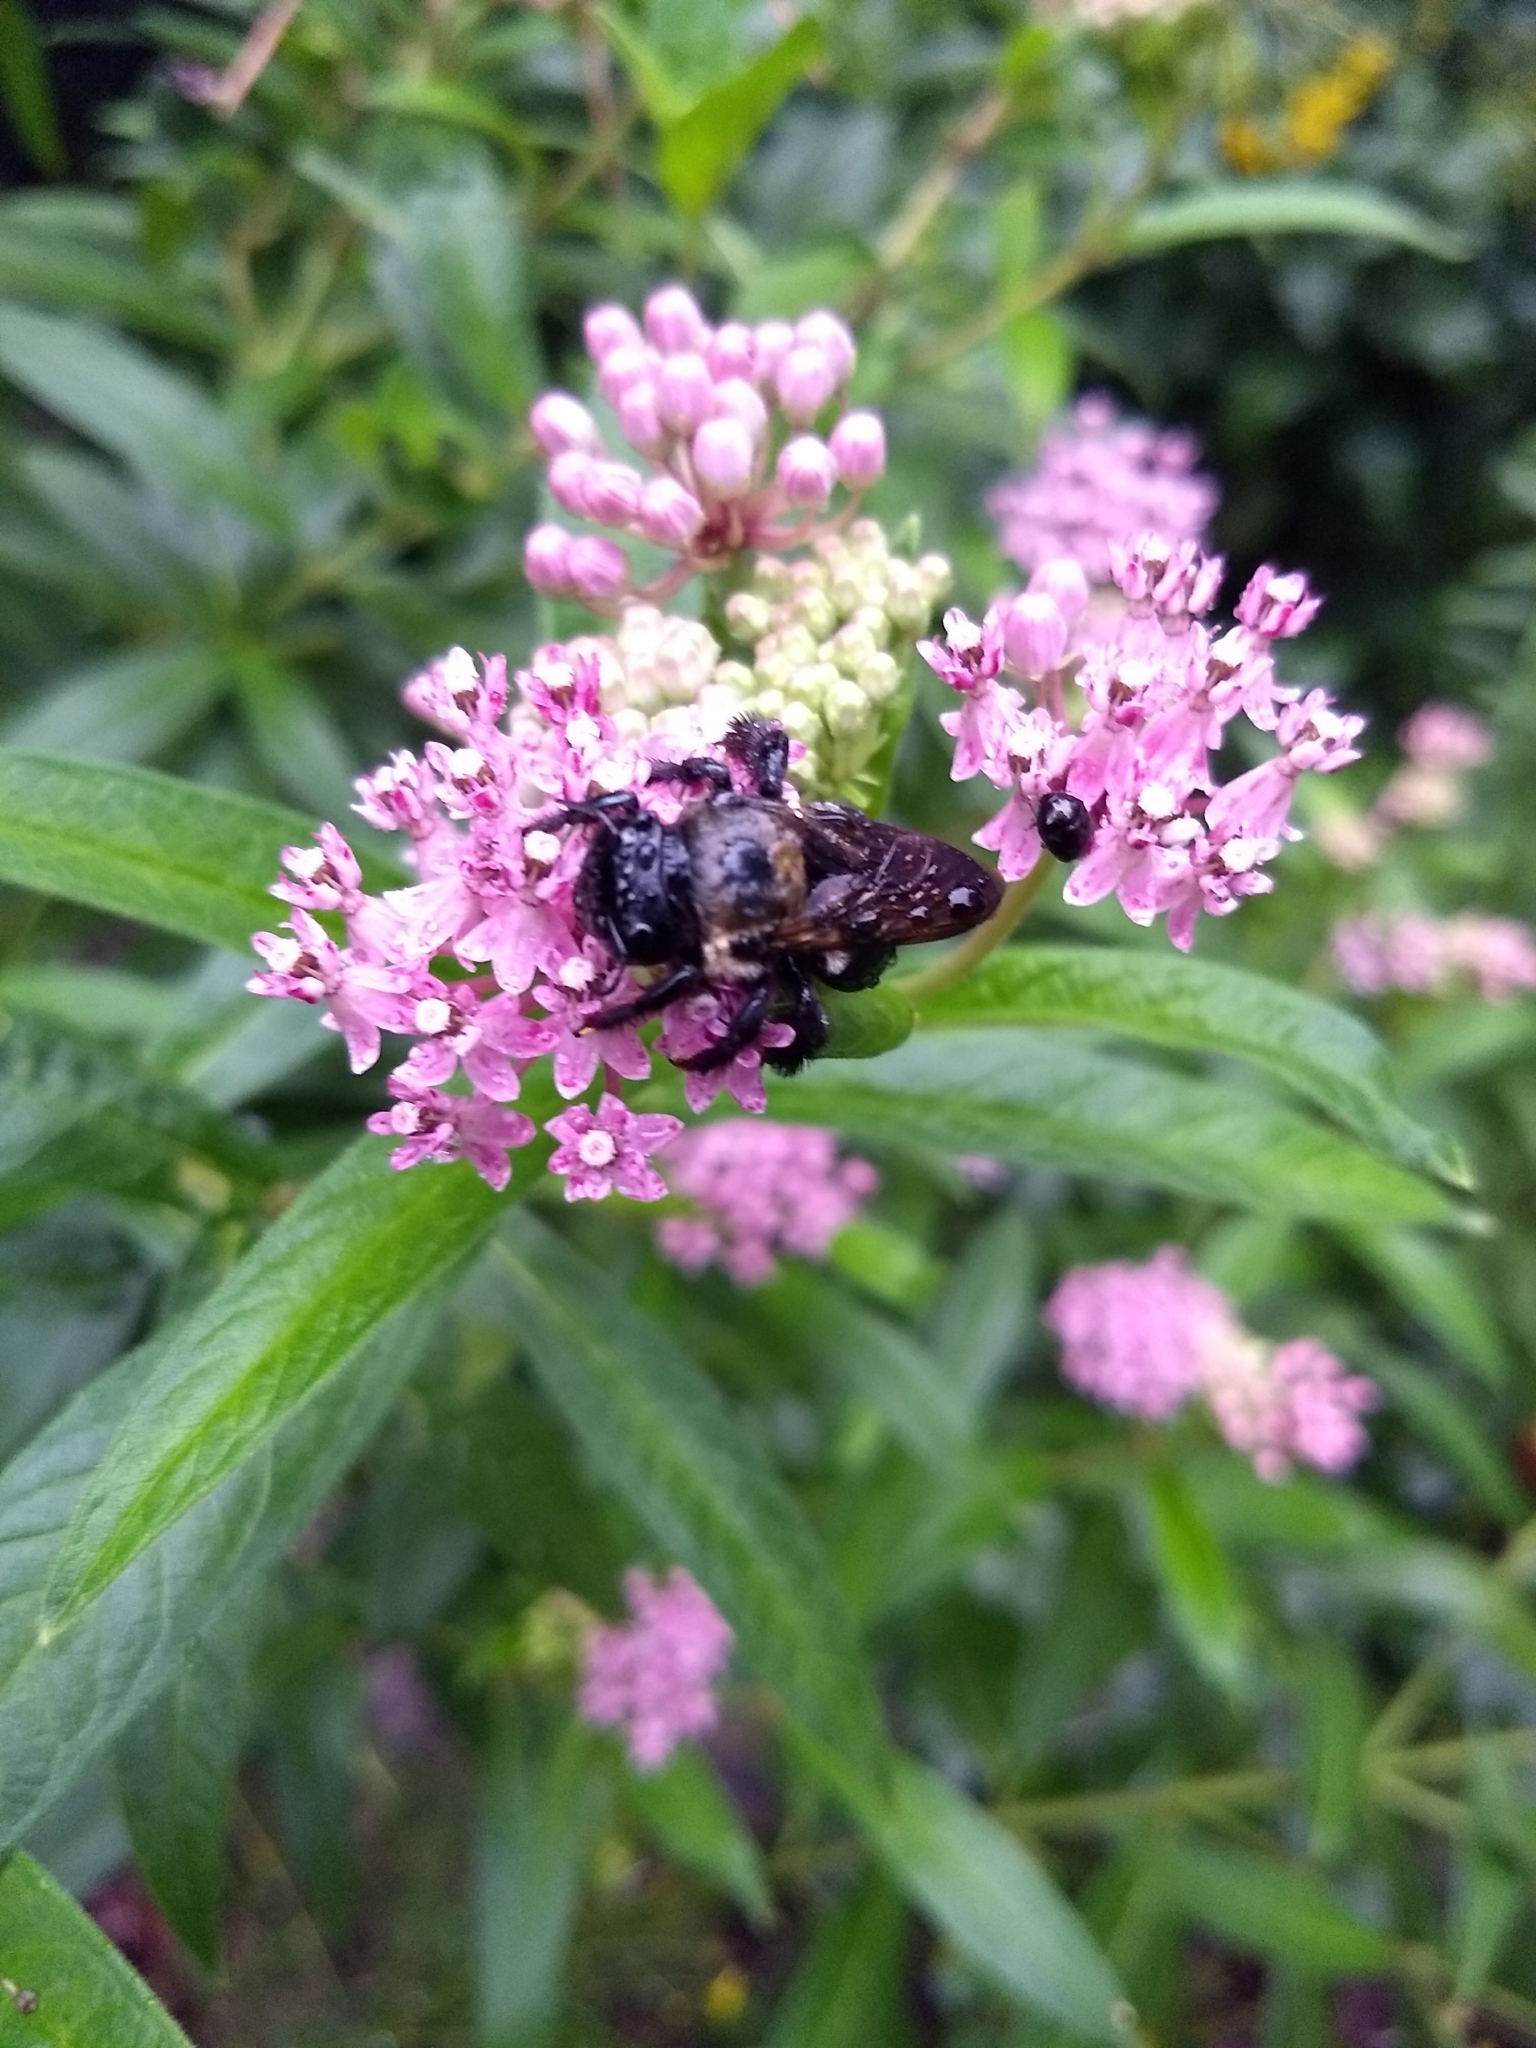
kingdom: Animalia
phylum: Arthropoda
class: Insecta
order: Hymenoptera
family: Apidae
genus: Xylocopa
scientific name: Xylocopa virginica
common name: Carpenter bee
